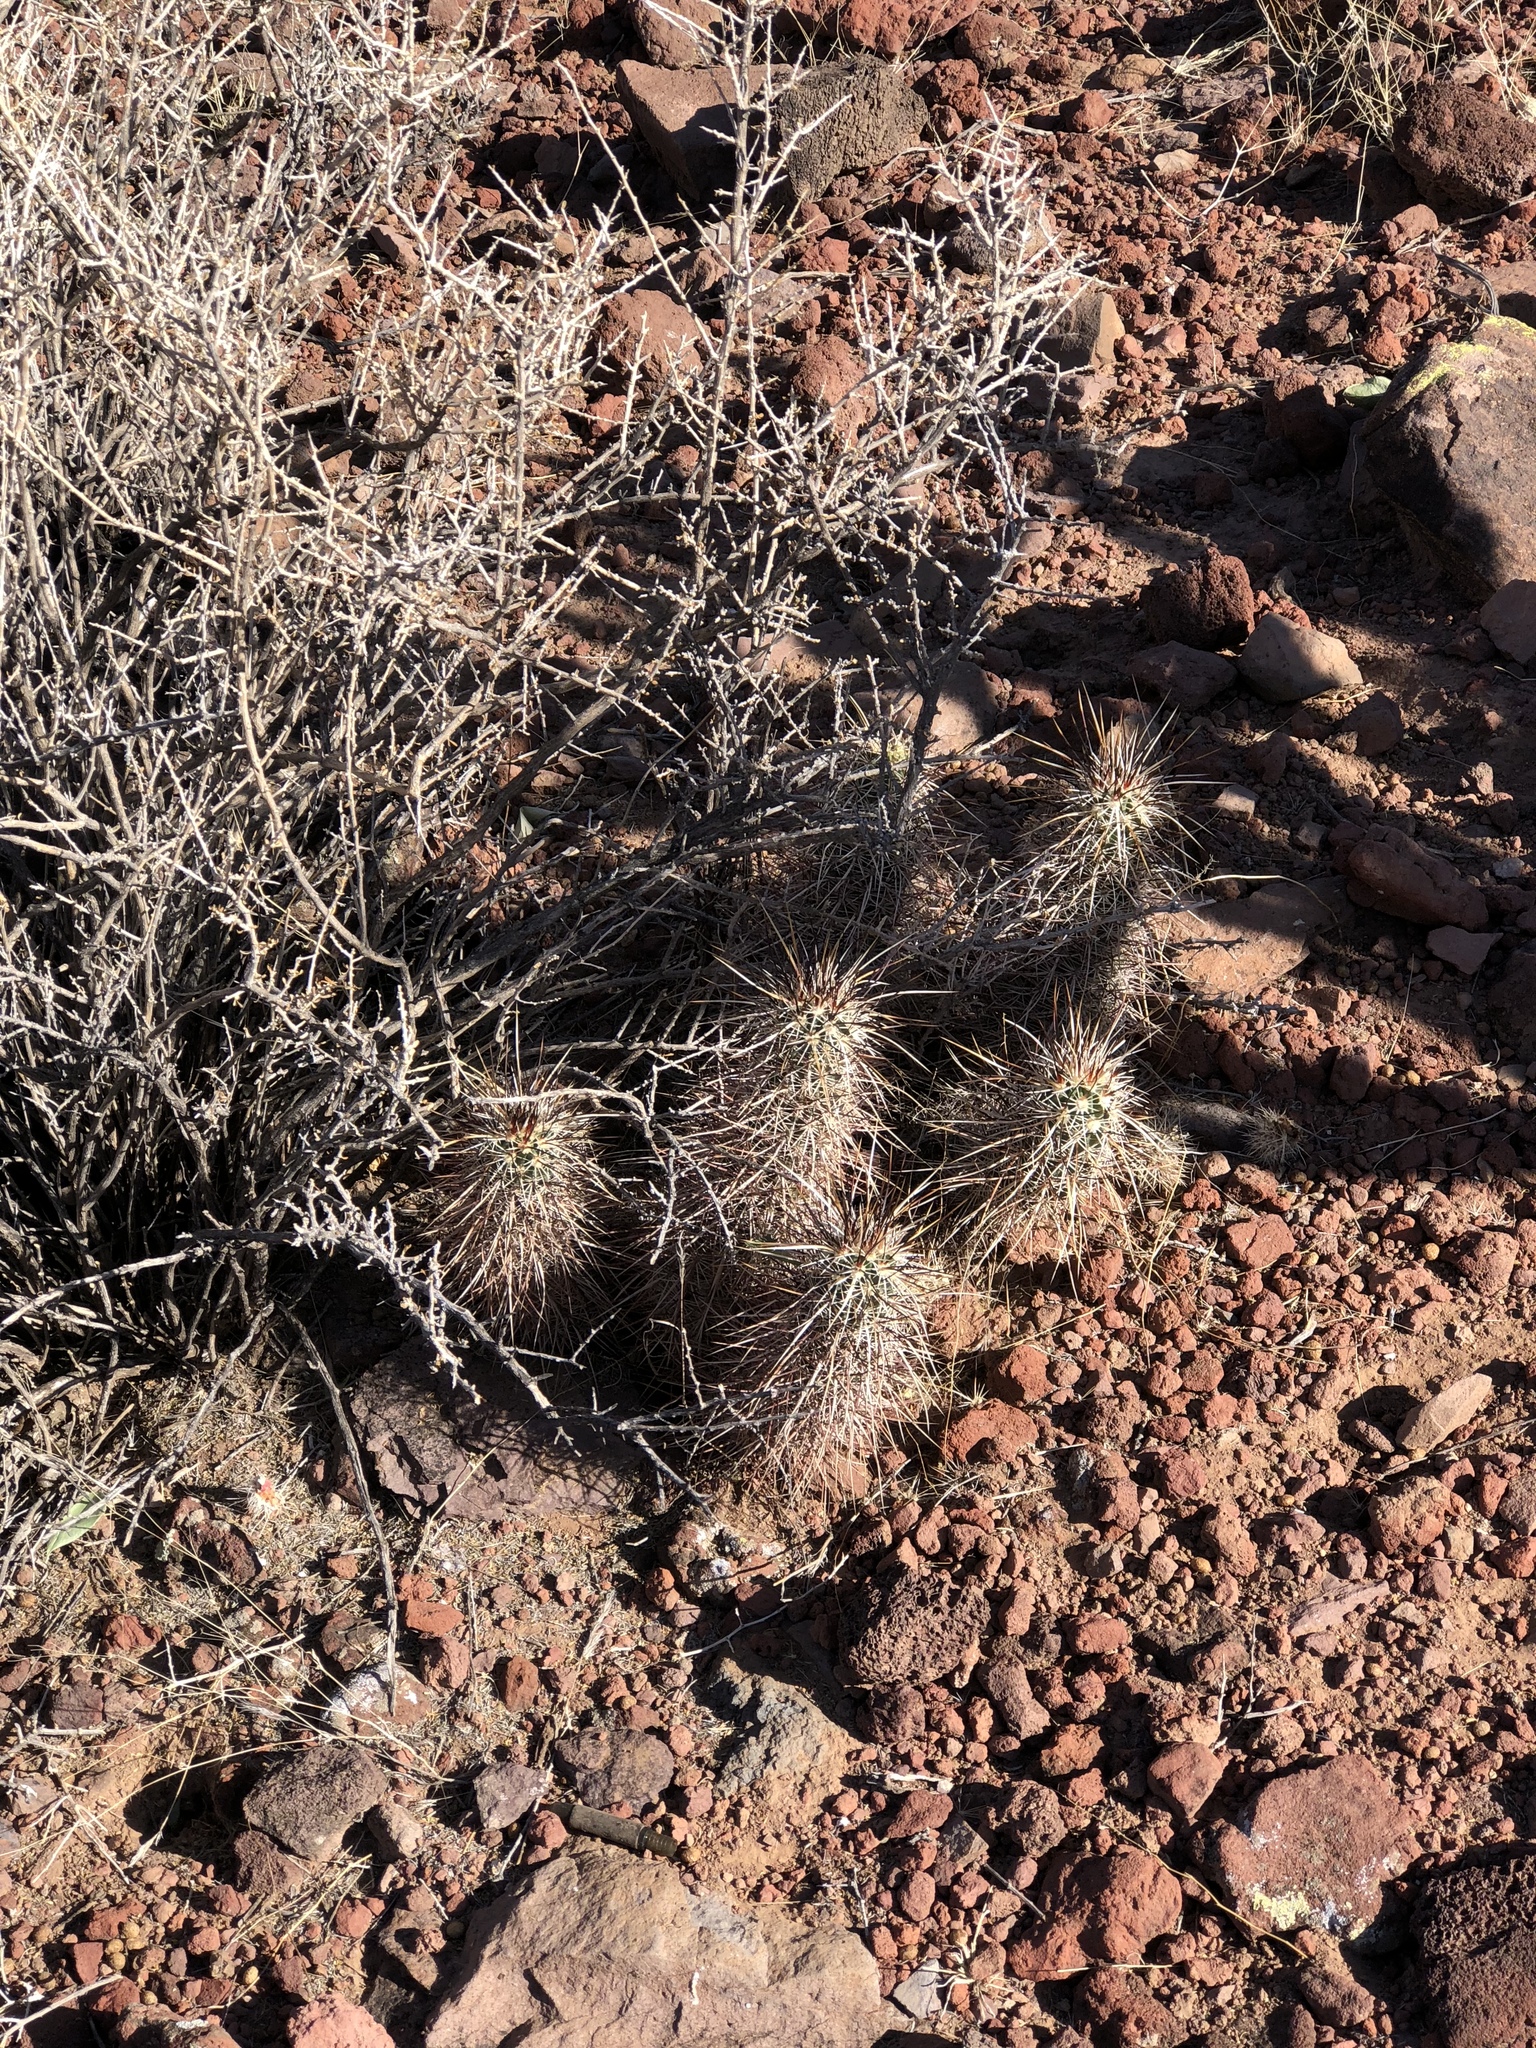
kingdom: Plantae
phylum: Tracheophyta
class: Magnoliopsida
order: Caryophyllales
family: Cactaceae
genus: Echinocereus
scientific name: Echinocereus engelmannii
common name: Engelmann's hedgehog cactus
